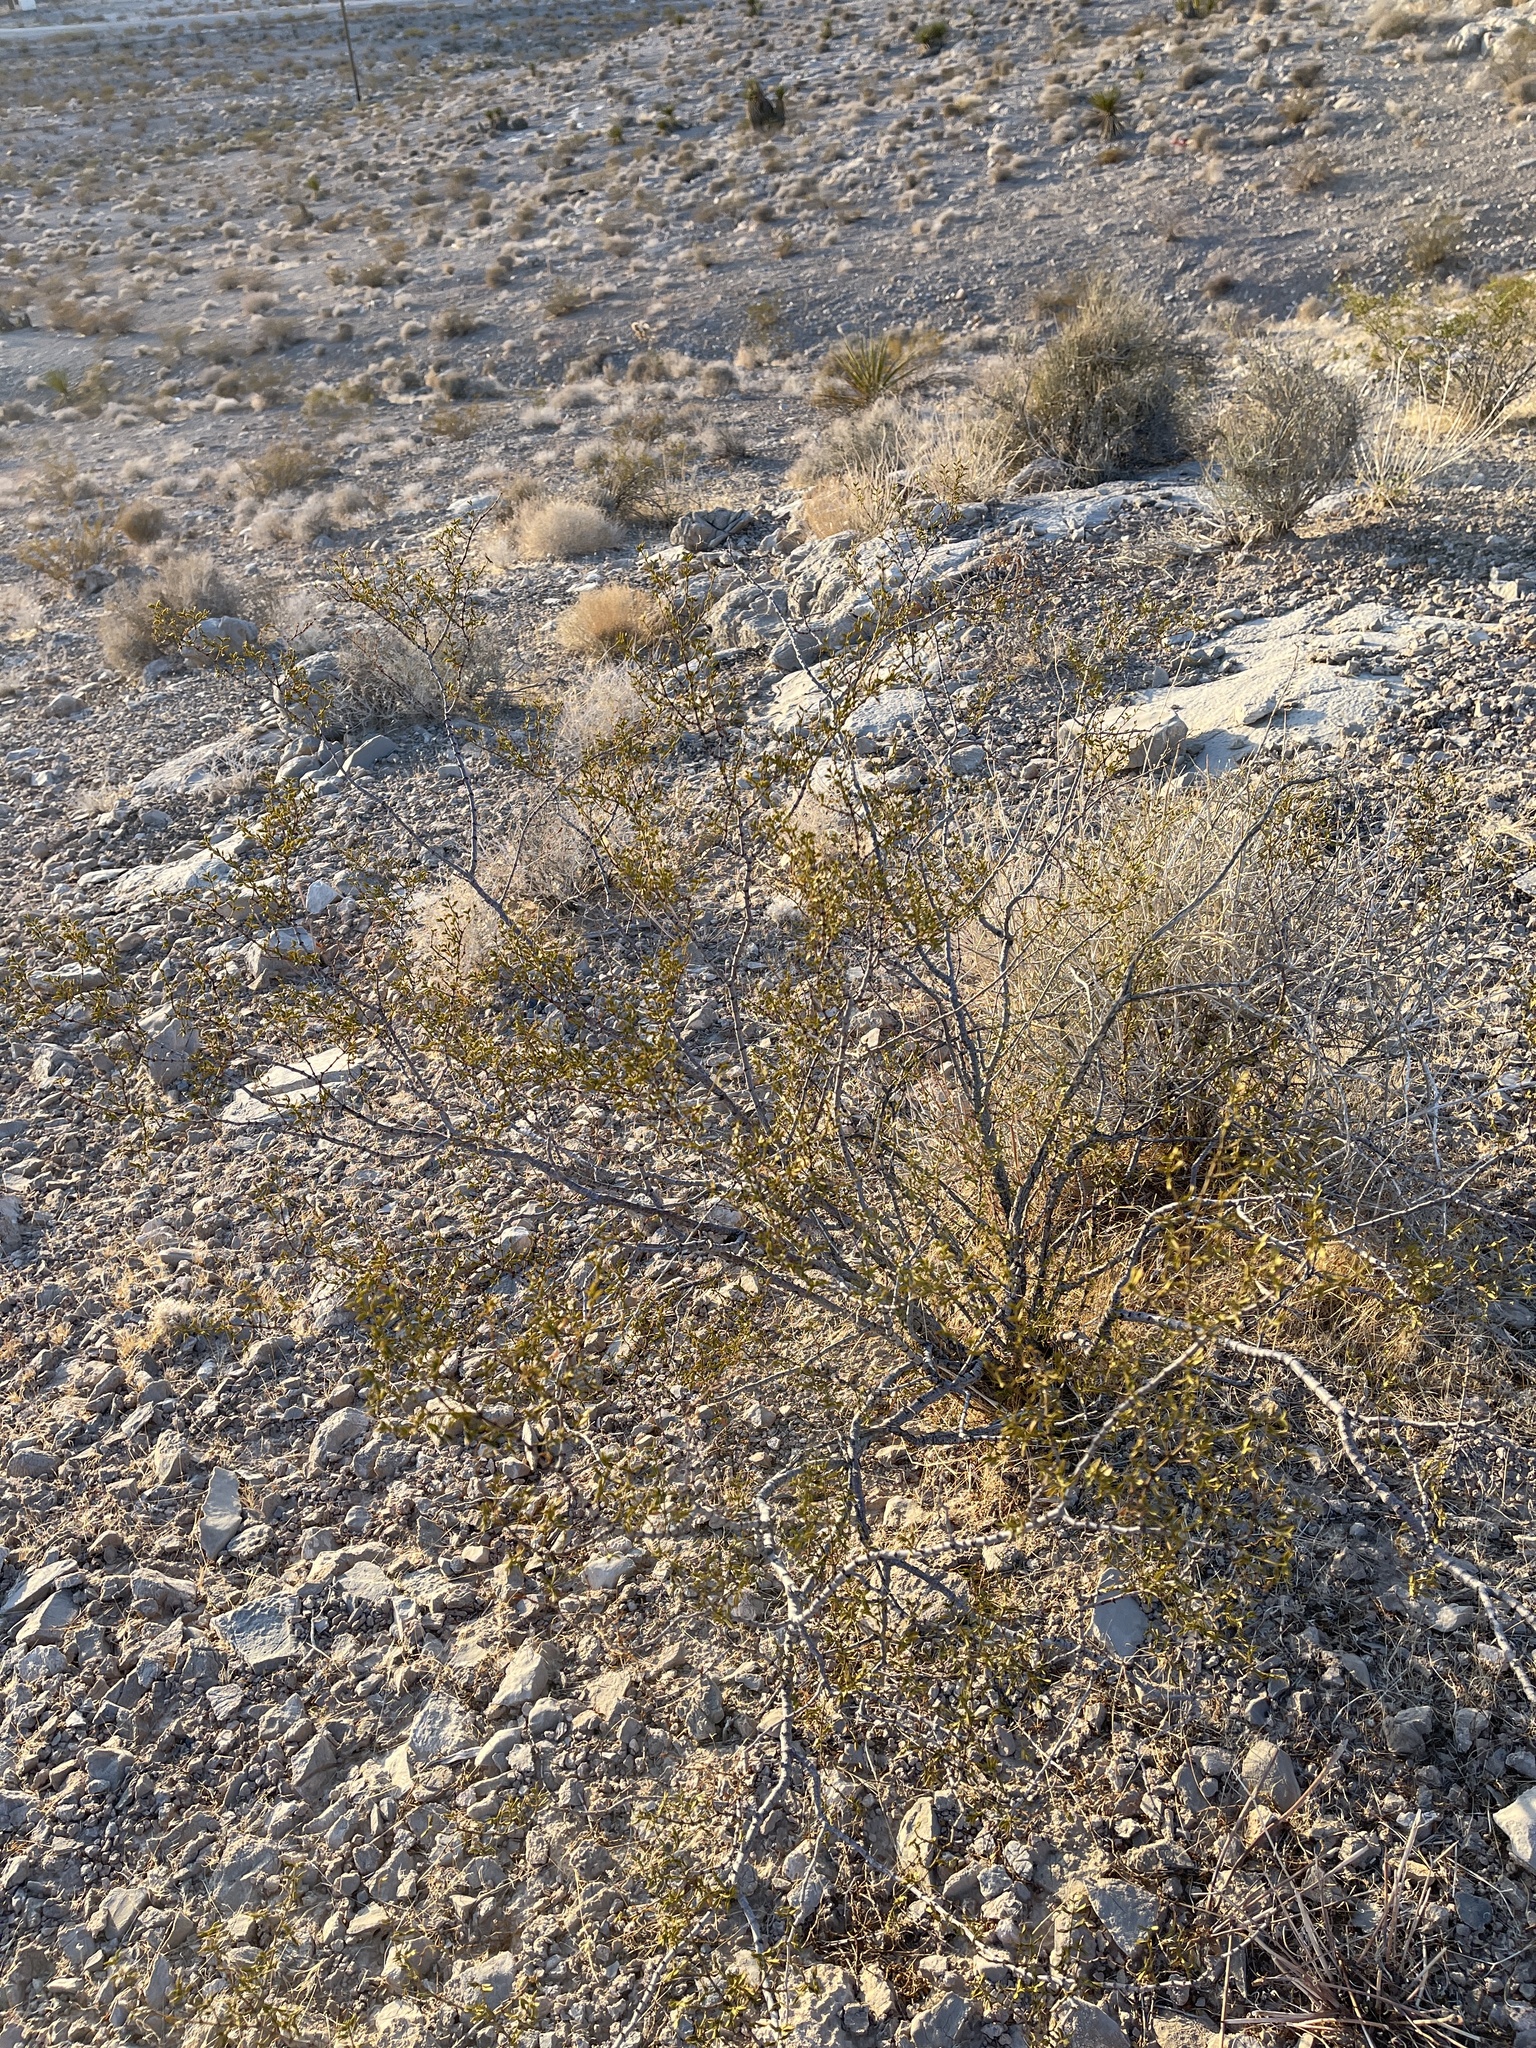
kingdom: Plantae
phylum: Tracheophyta
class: Magnoliopsida
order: Zygophyllales
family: Zygophyllaceae
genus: Larrea
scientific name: Larrea tridentata
